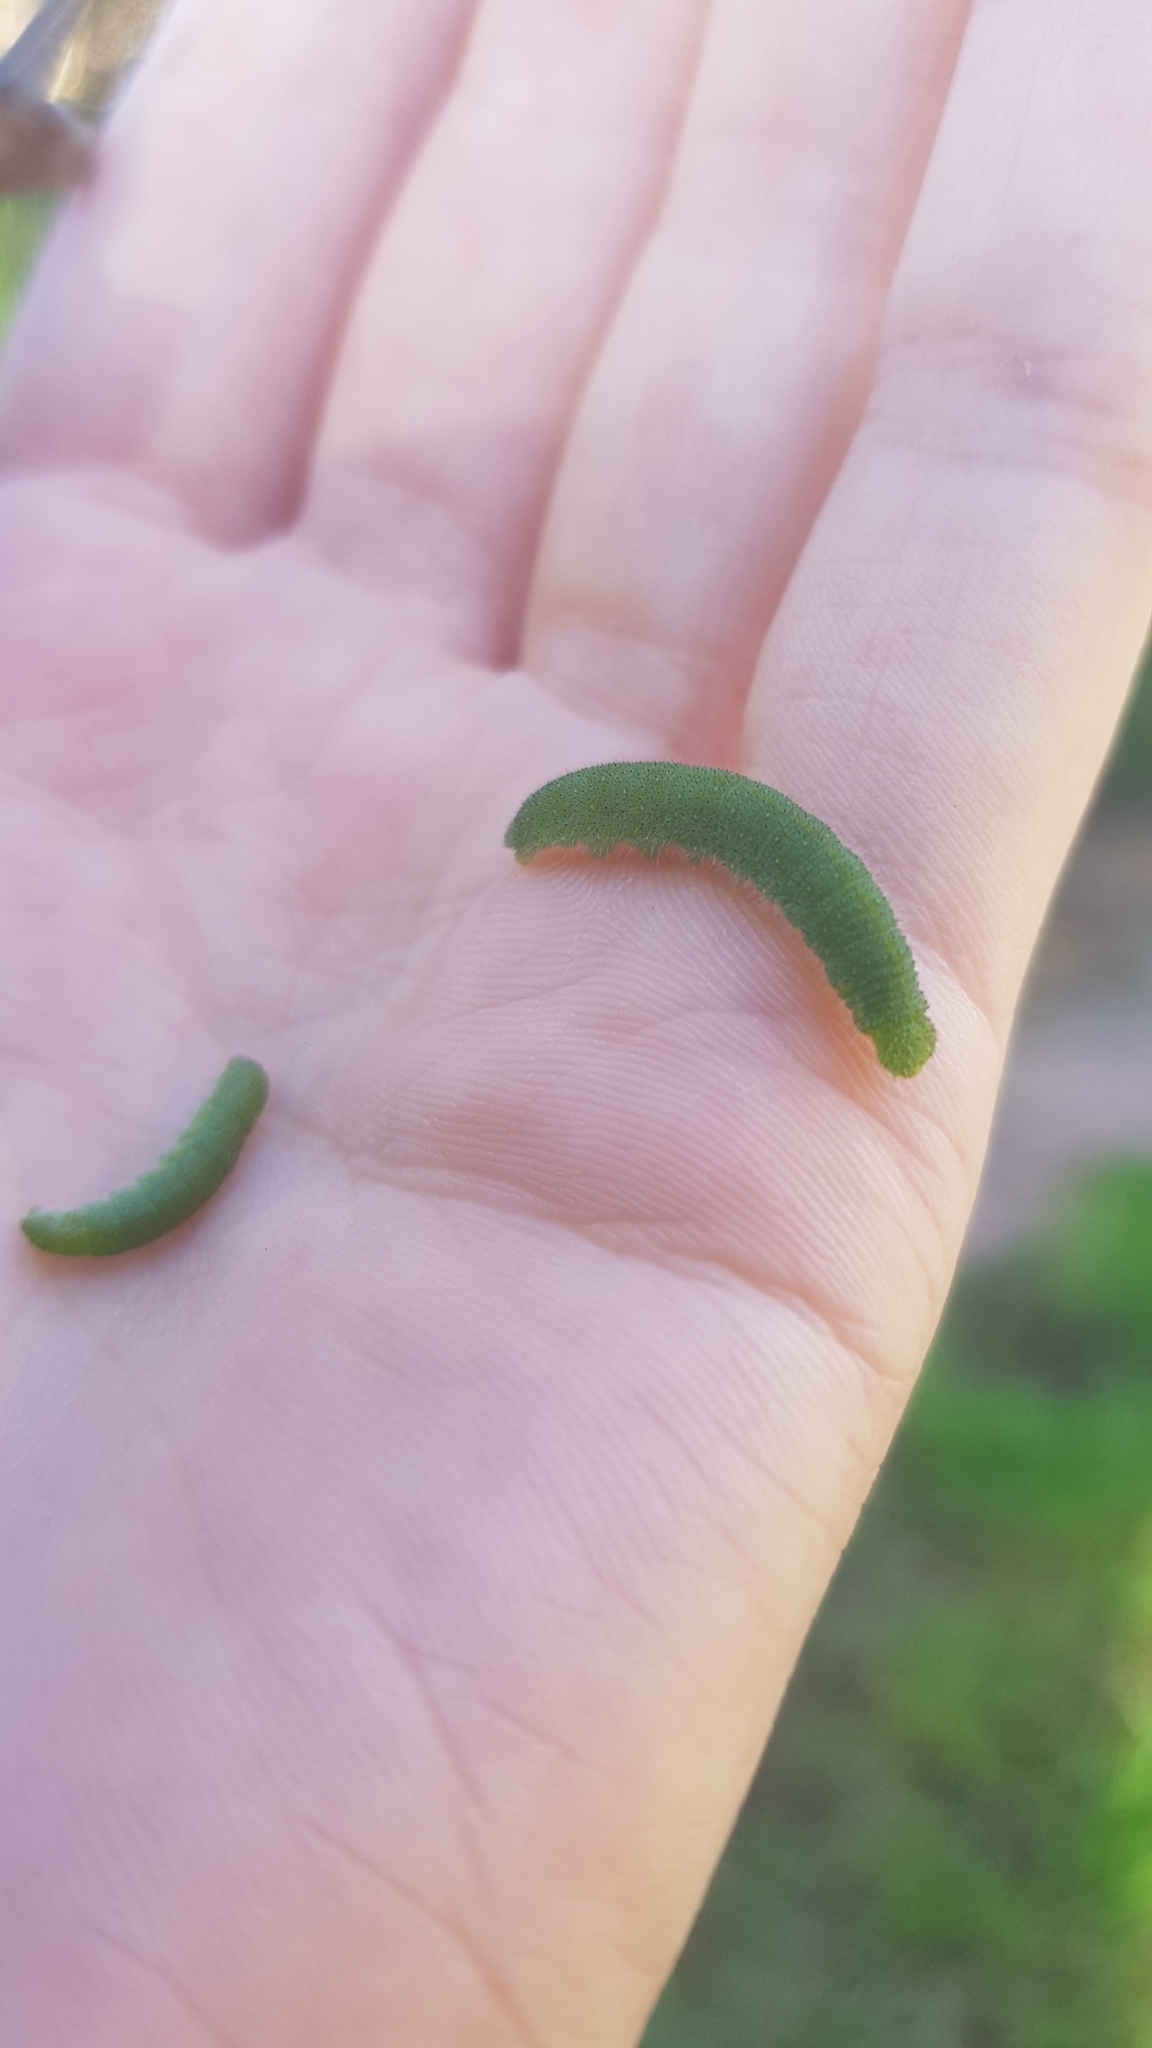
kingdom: Animalia
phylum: Arthropoda
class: Insecta
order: Lepidoptera
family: Pieridae
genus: Pieris
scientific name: Pieris rapae
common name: Small white
